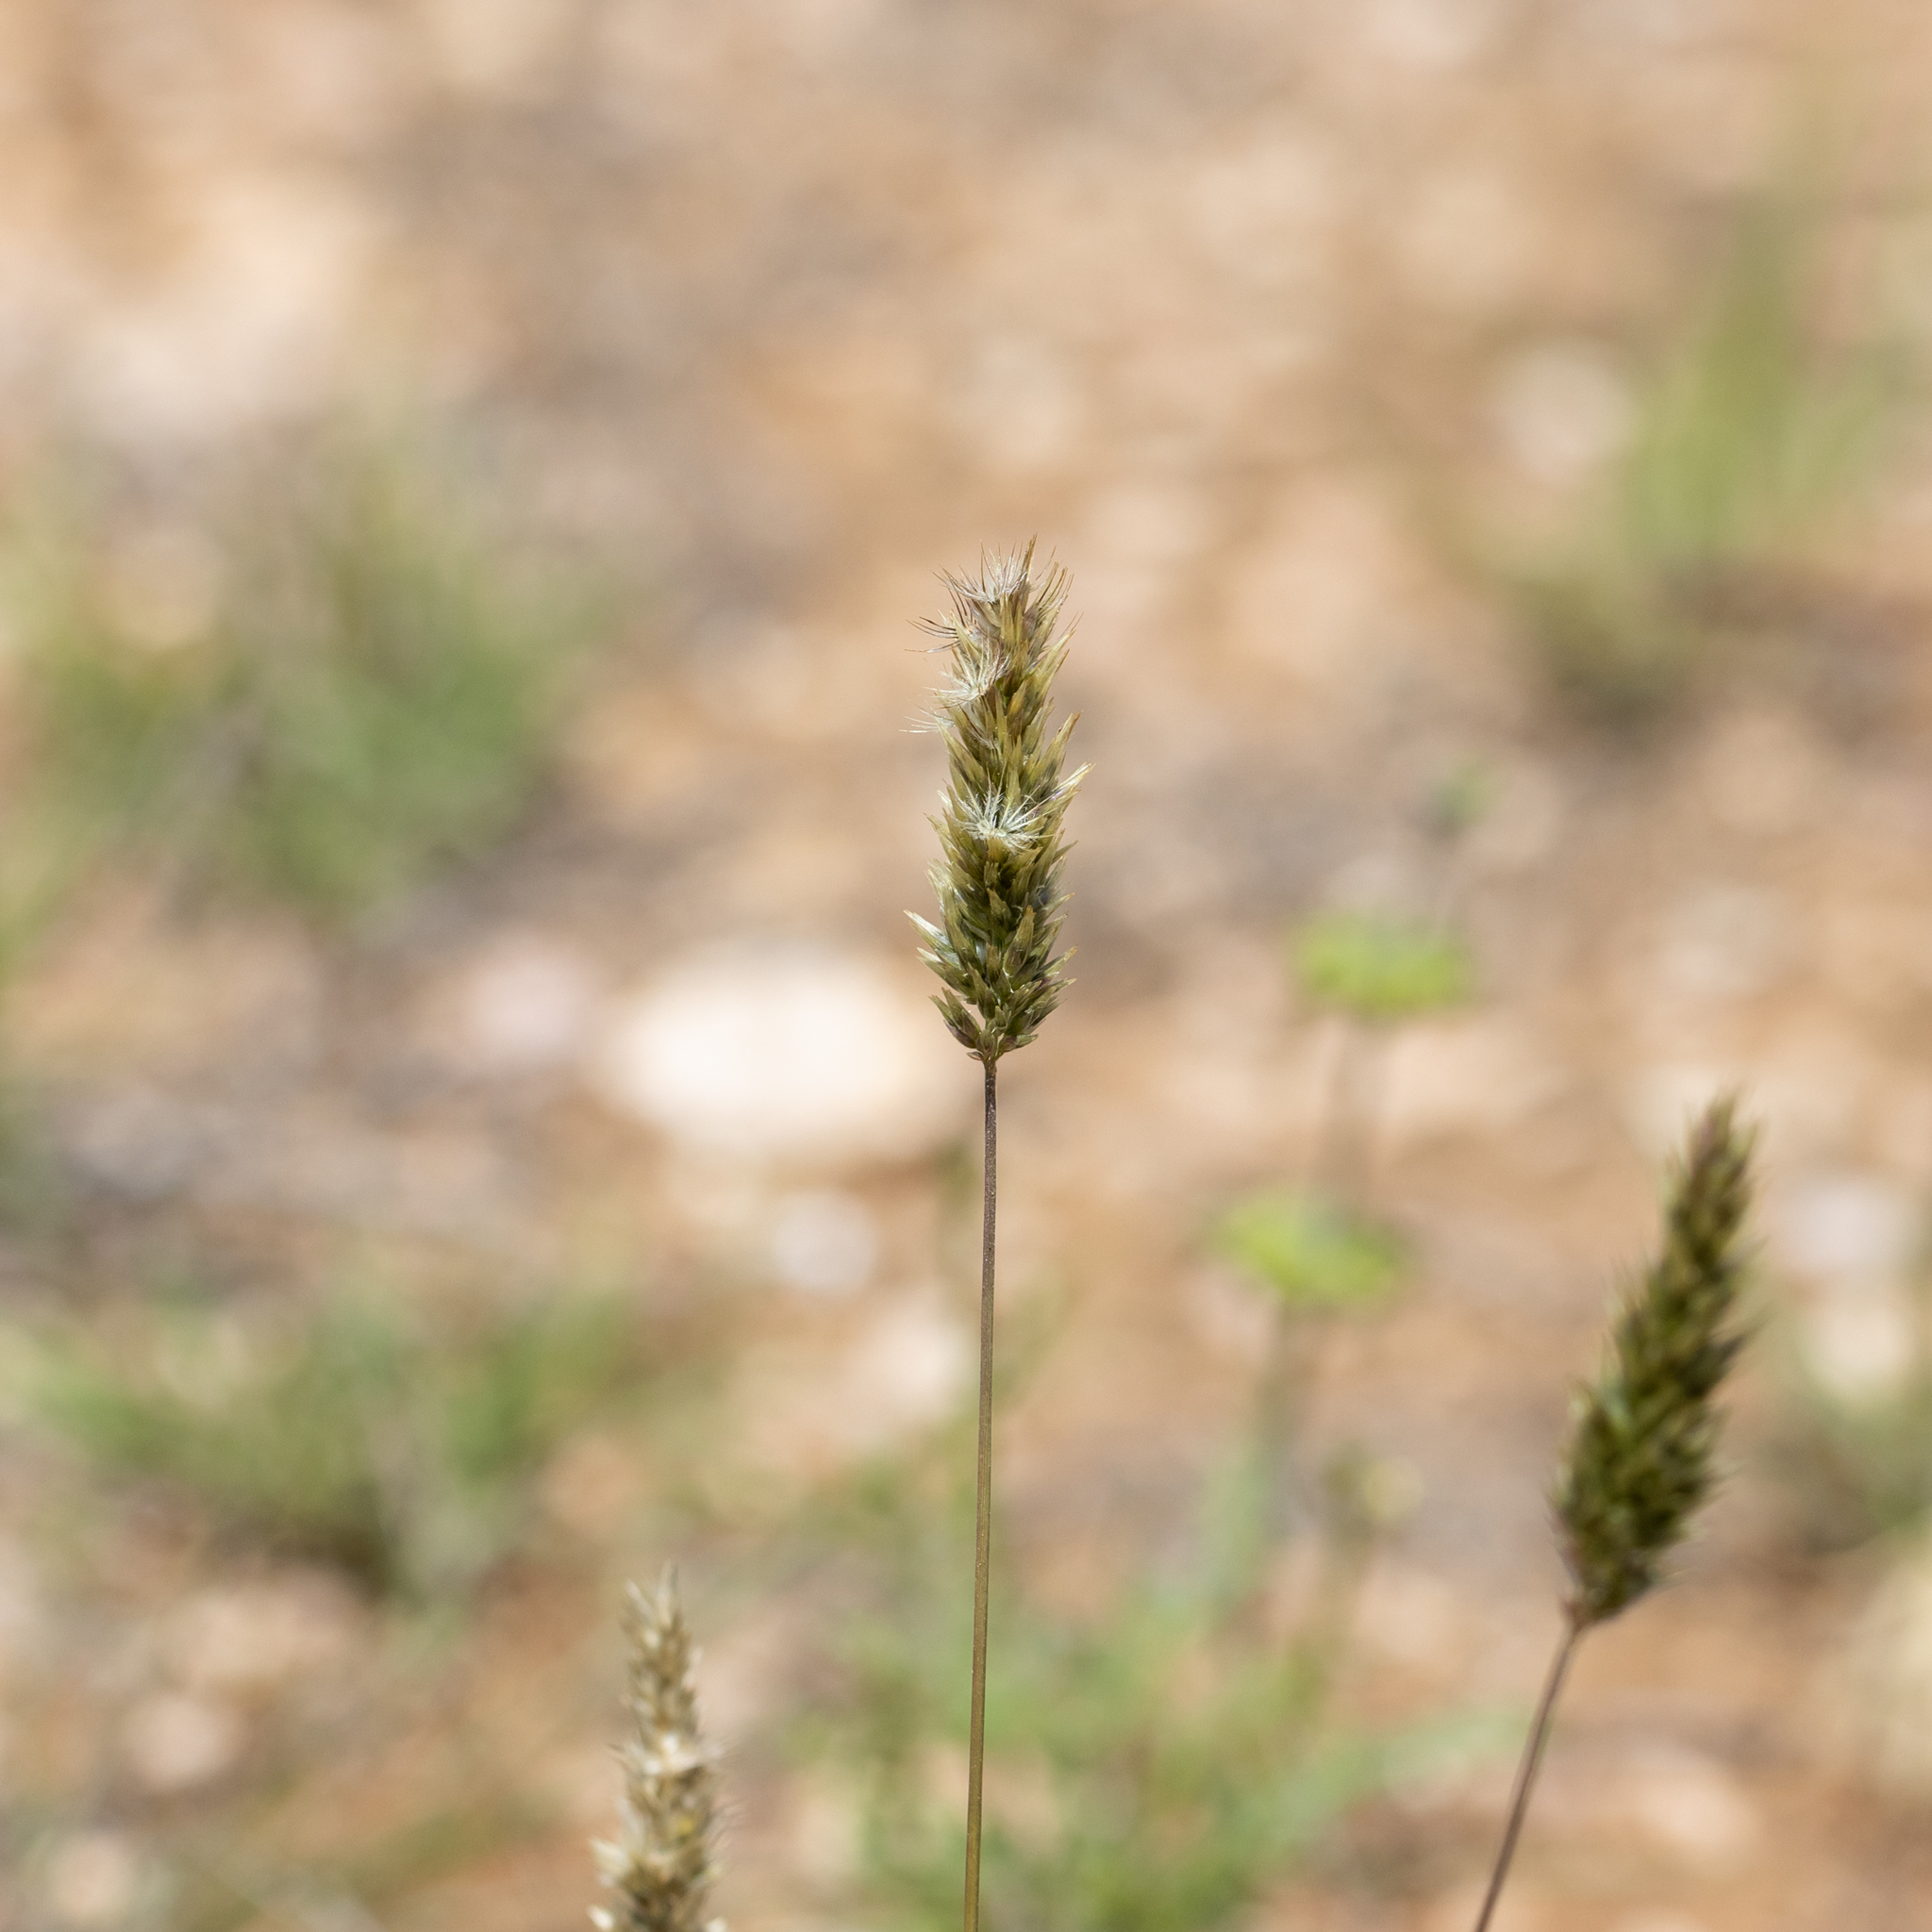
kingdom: Plantae
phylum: Tracheophyta
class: Liliopsida
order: Poales
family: Poaceae
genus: Enneapogon
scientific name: Enneapogon nigricans
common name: Pappus grass
